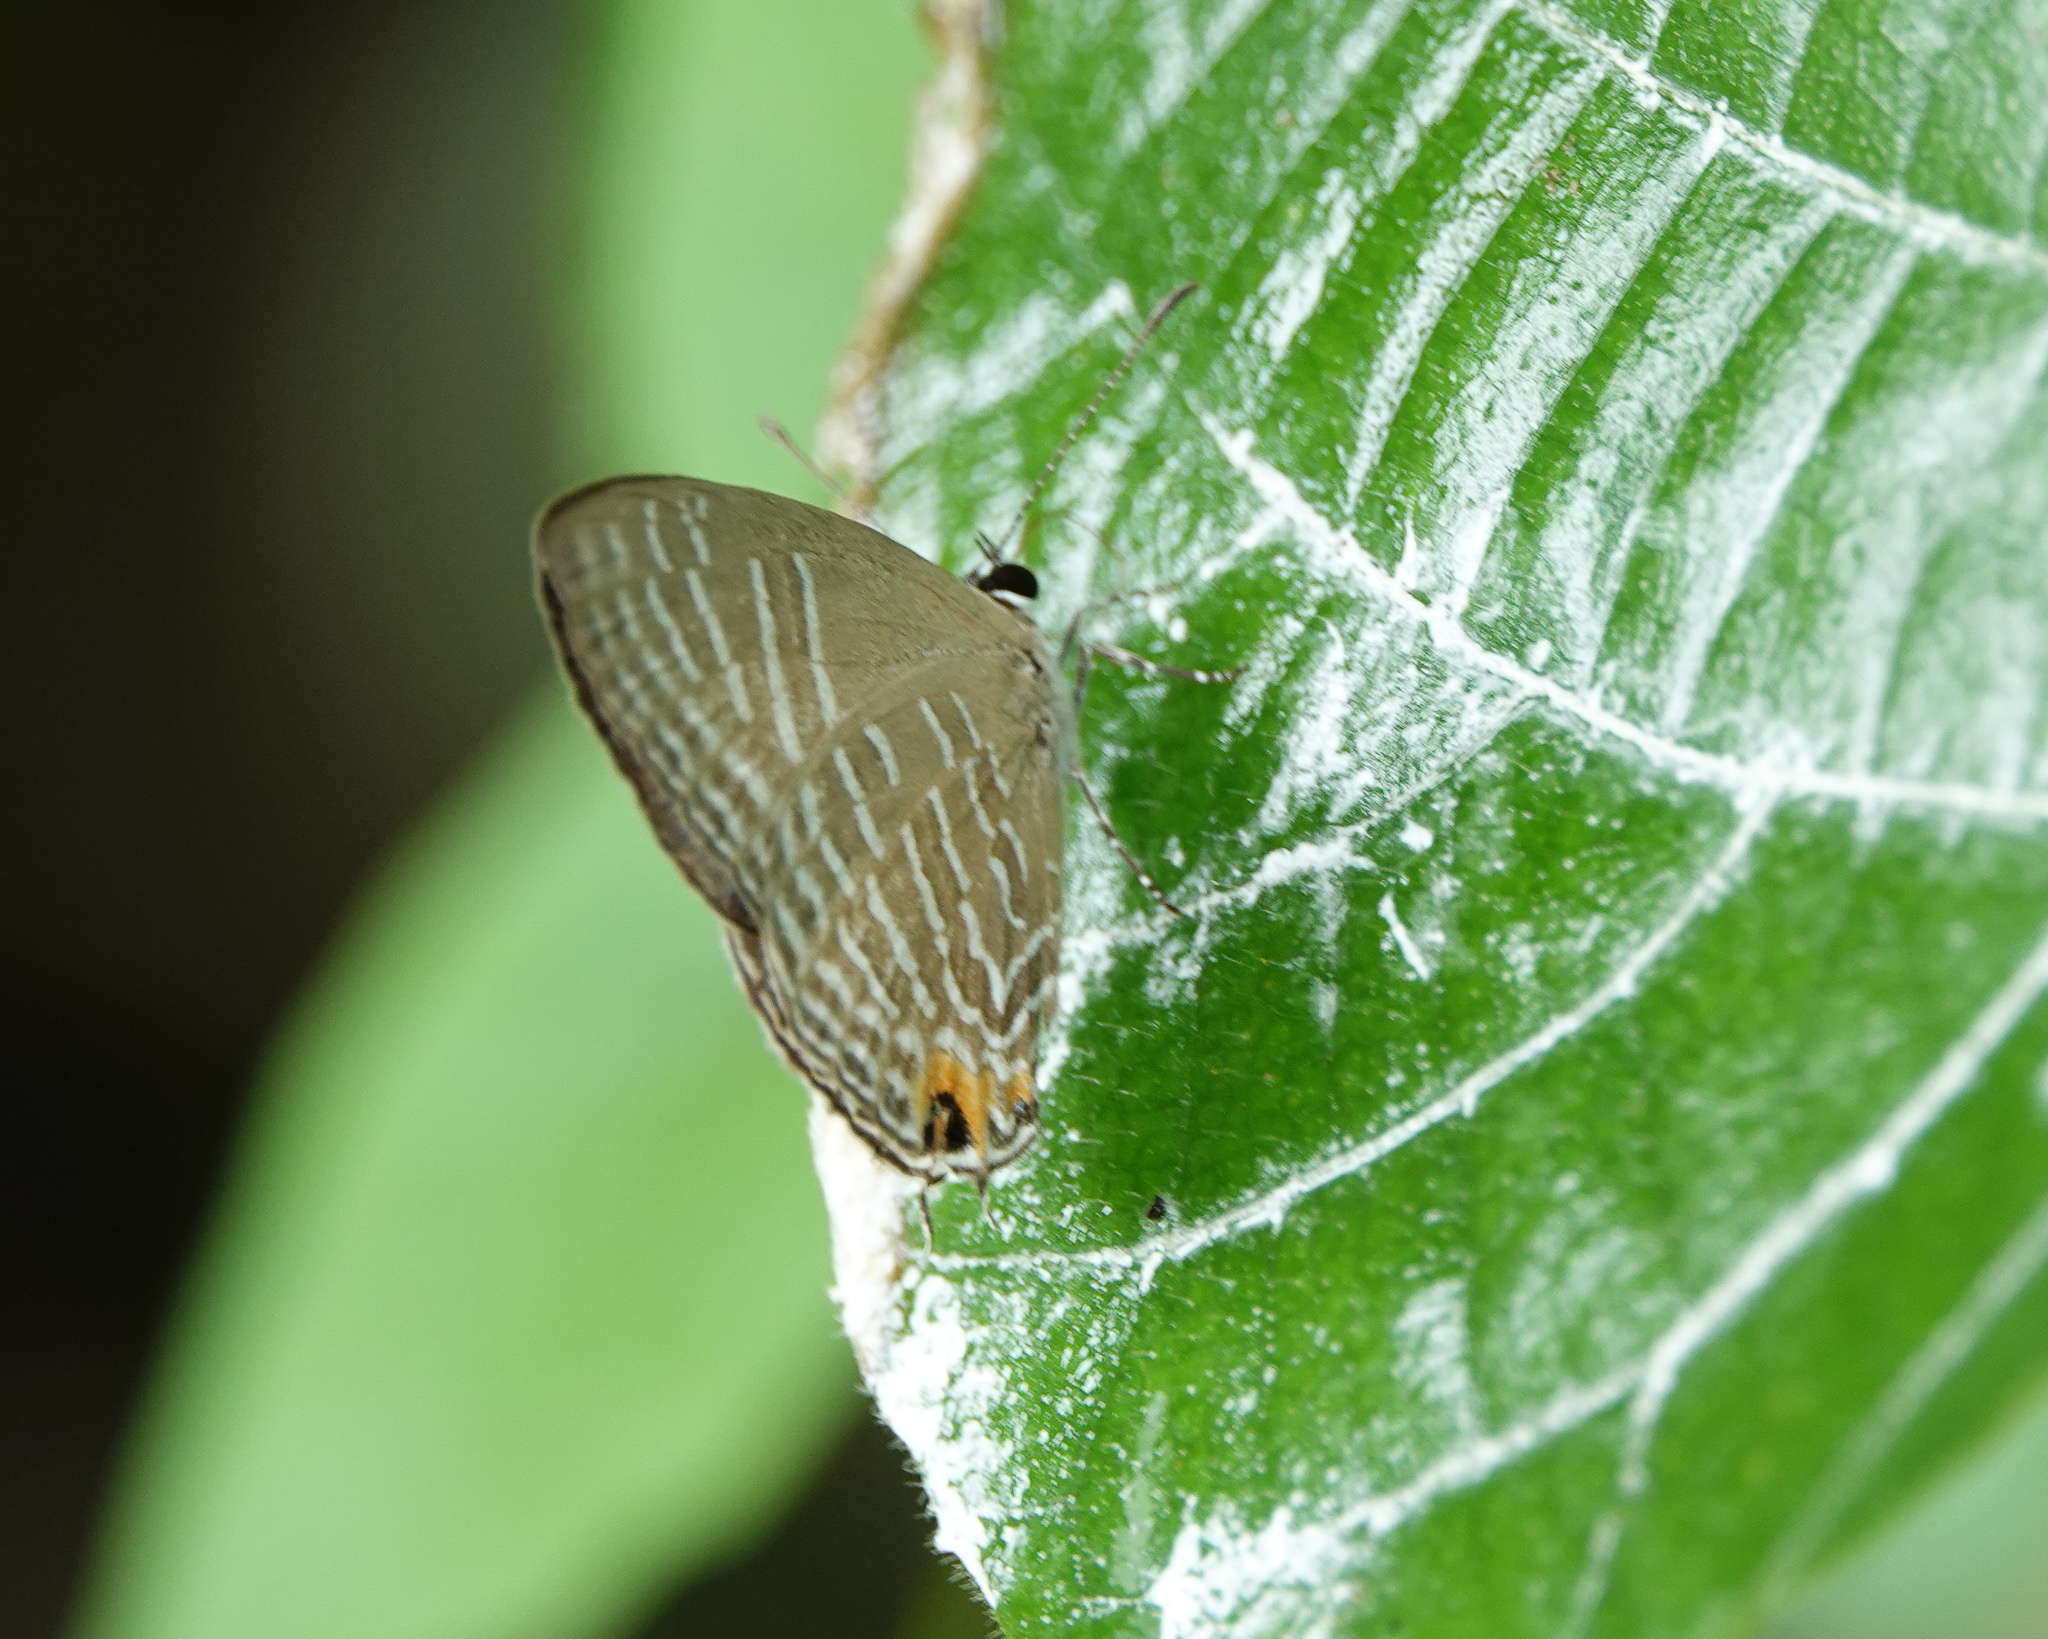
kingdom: Animalia
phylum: Arthropoda
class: Insecta
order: Lepidoptera
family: Lycaenidae
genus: Jamides
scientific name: Jamides alecto
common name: Metallic cerulean
